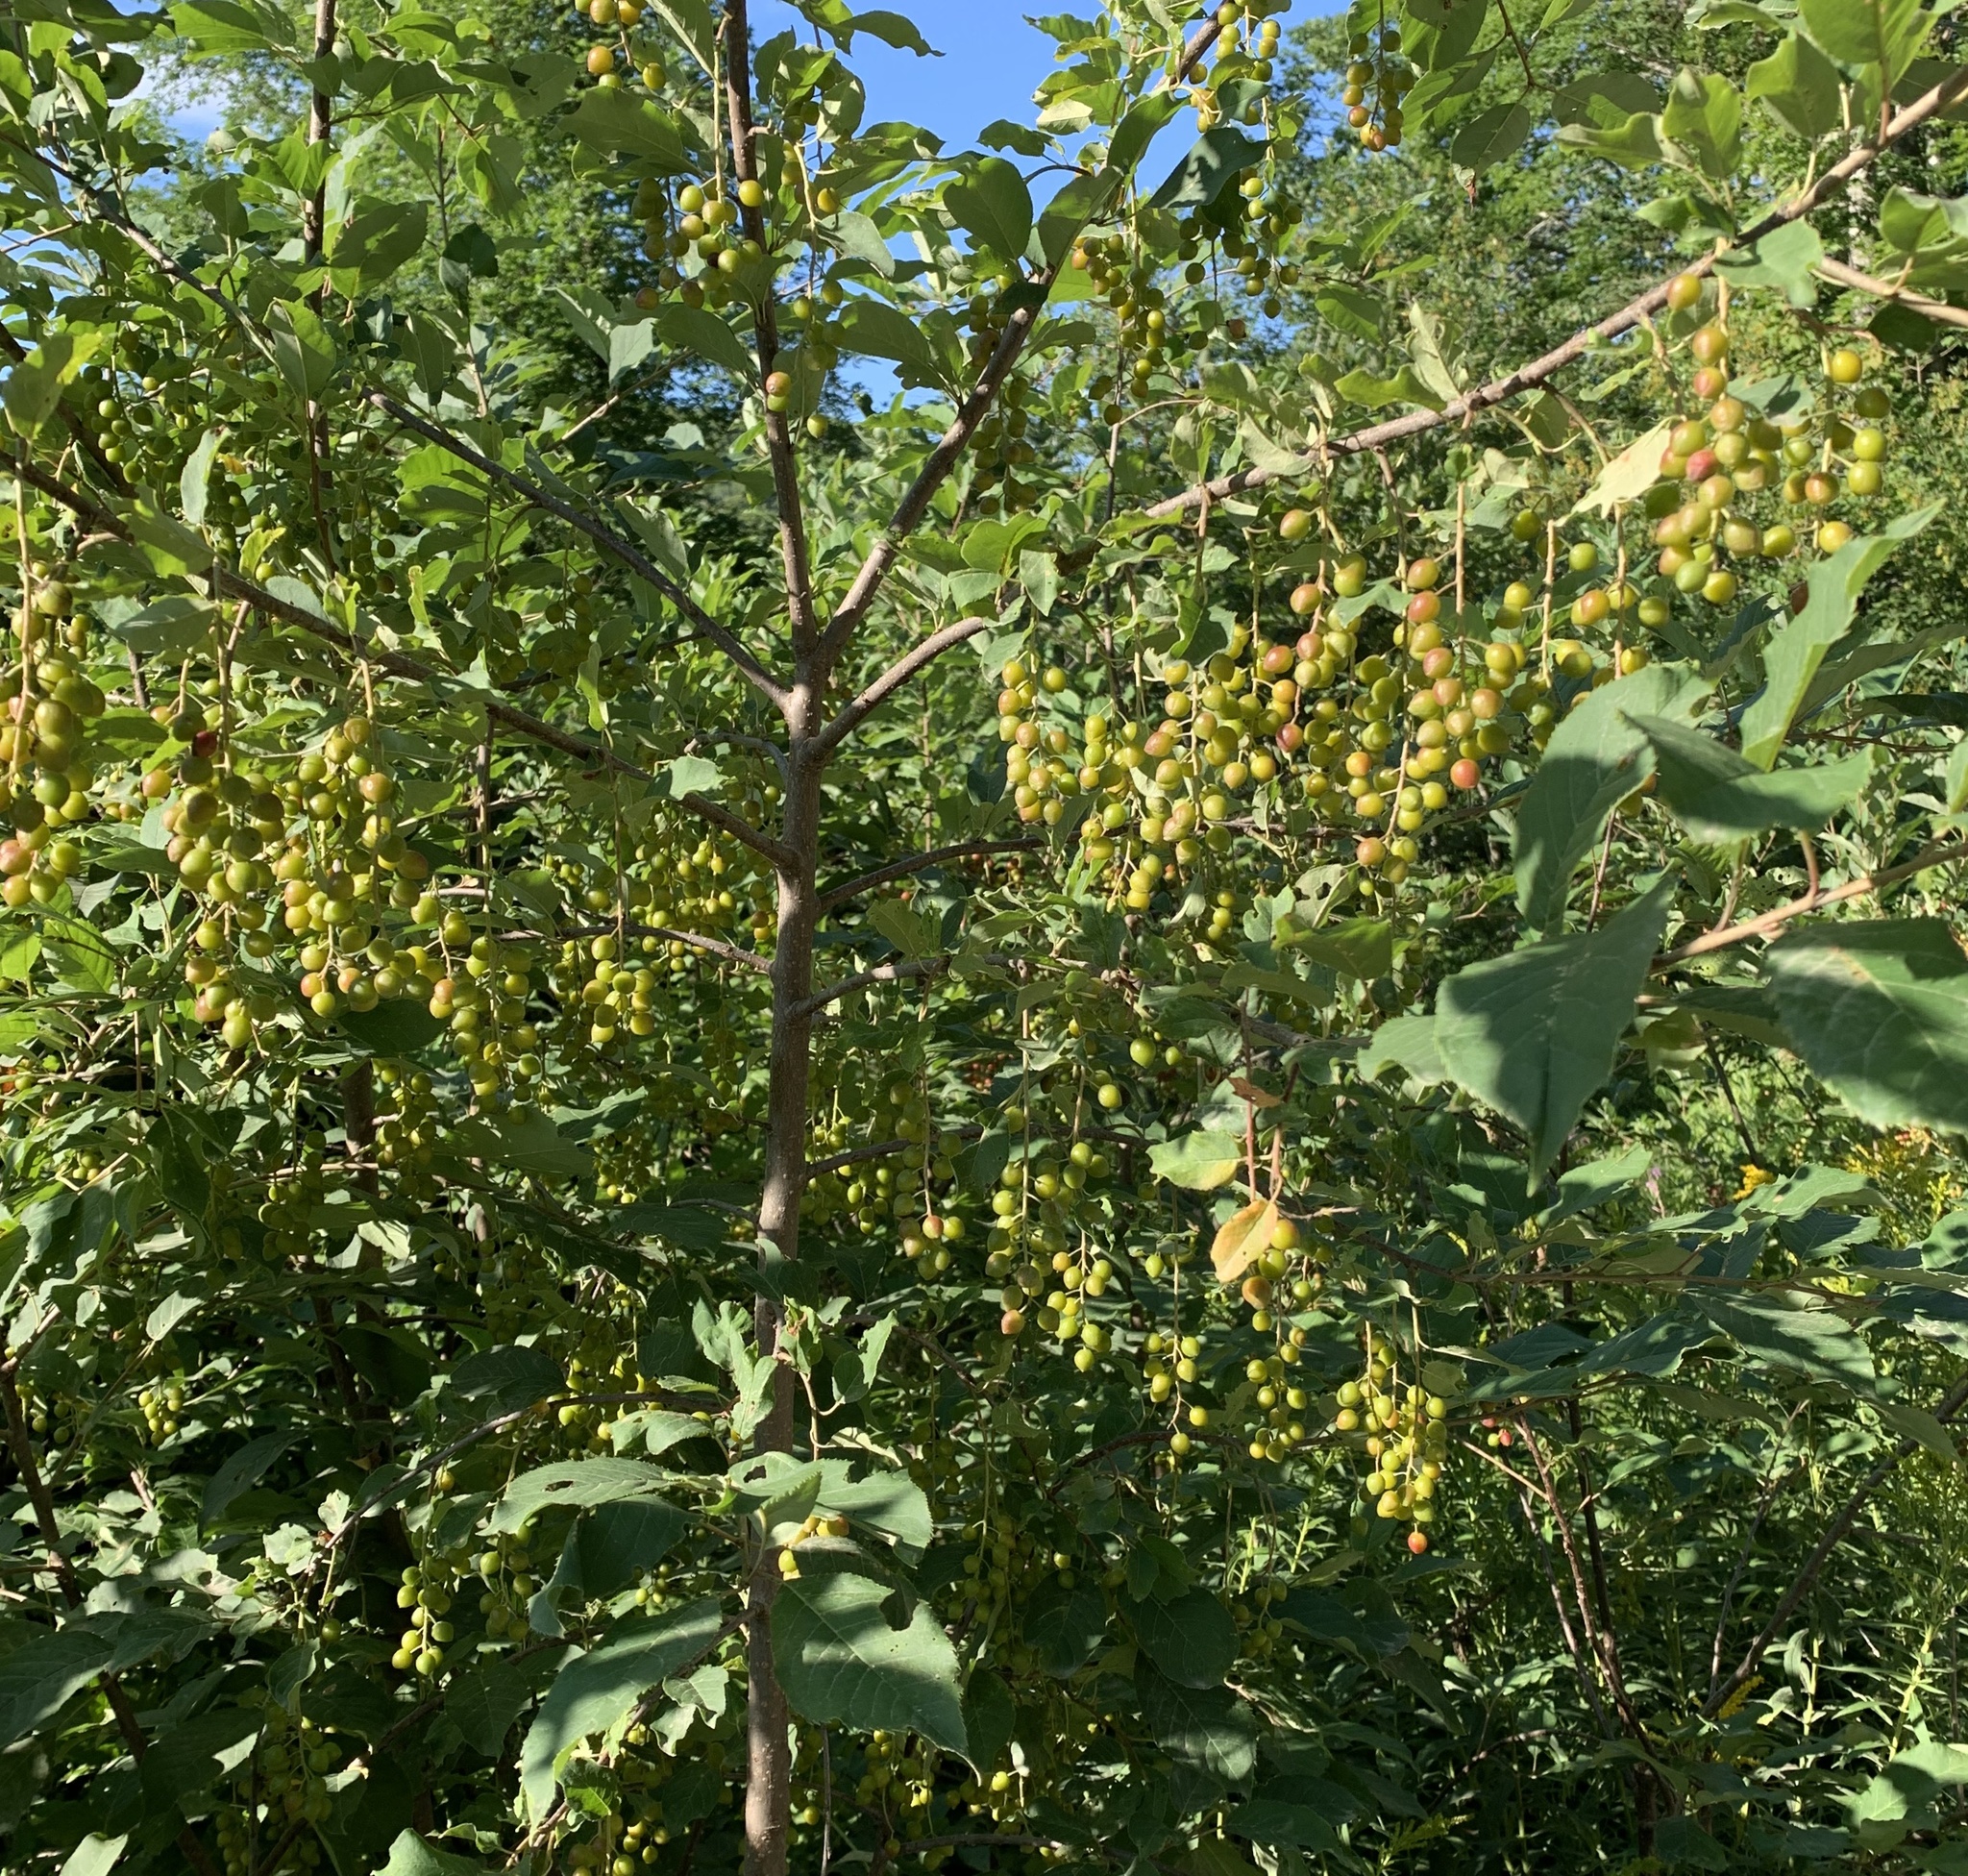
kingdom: Plantae
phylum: Tracheophyta
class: Magnoliopsida
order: Rosales
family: Rosaceae
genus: Prunus
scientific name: Prunus virginiana
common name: Chokecherry
